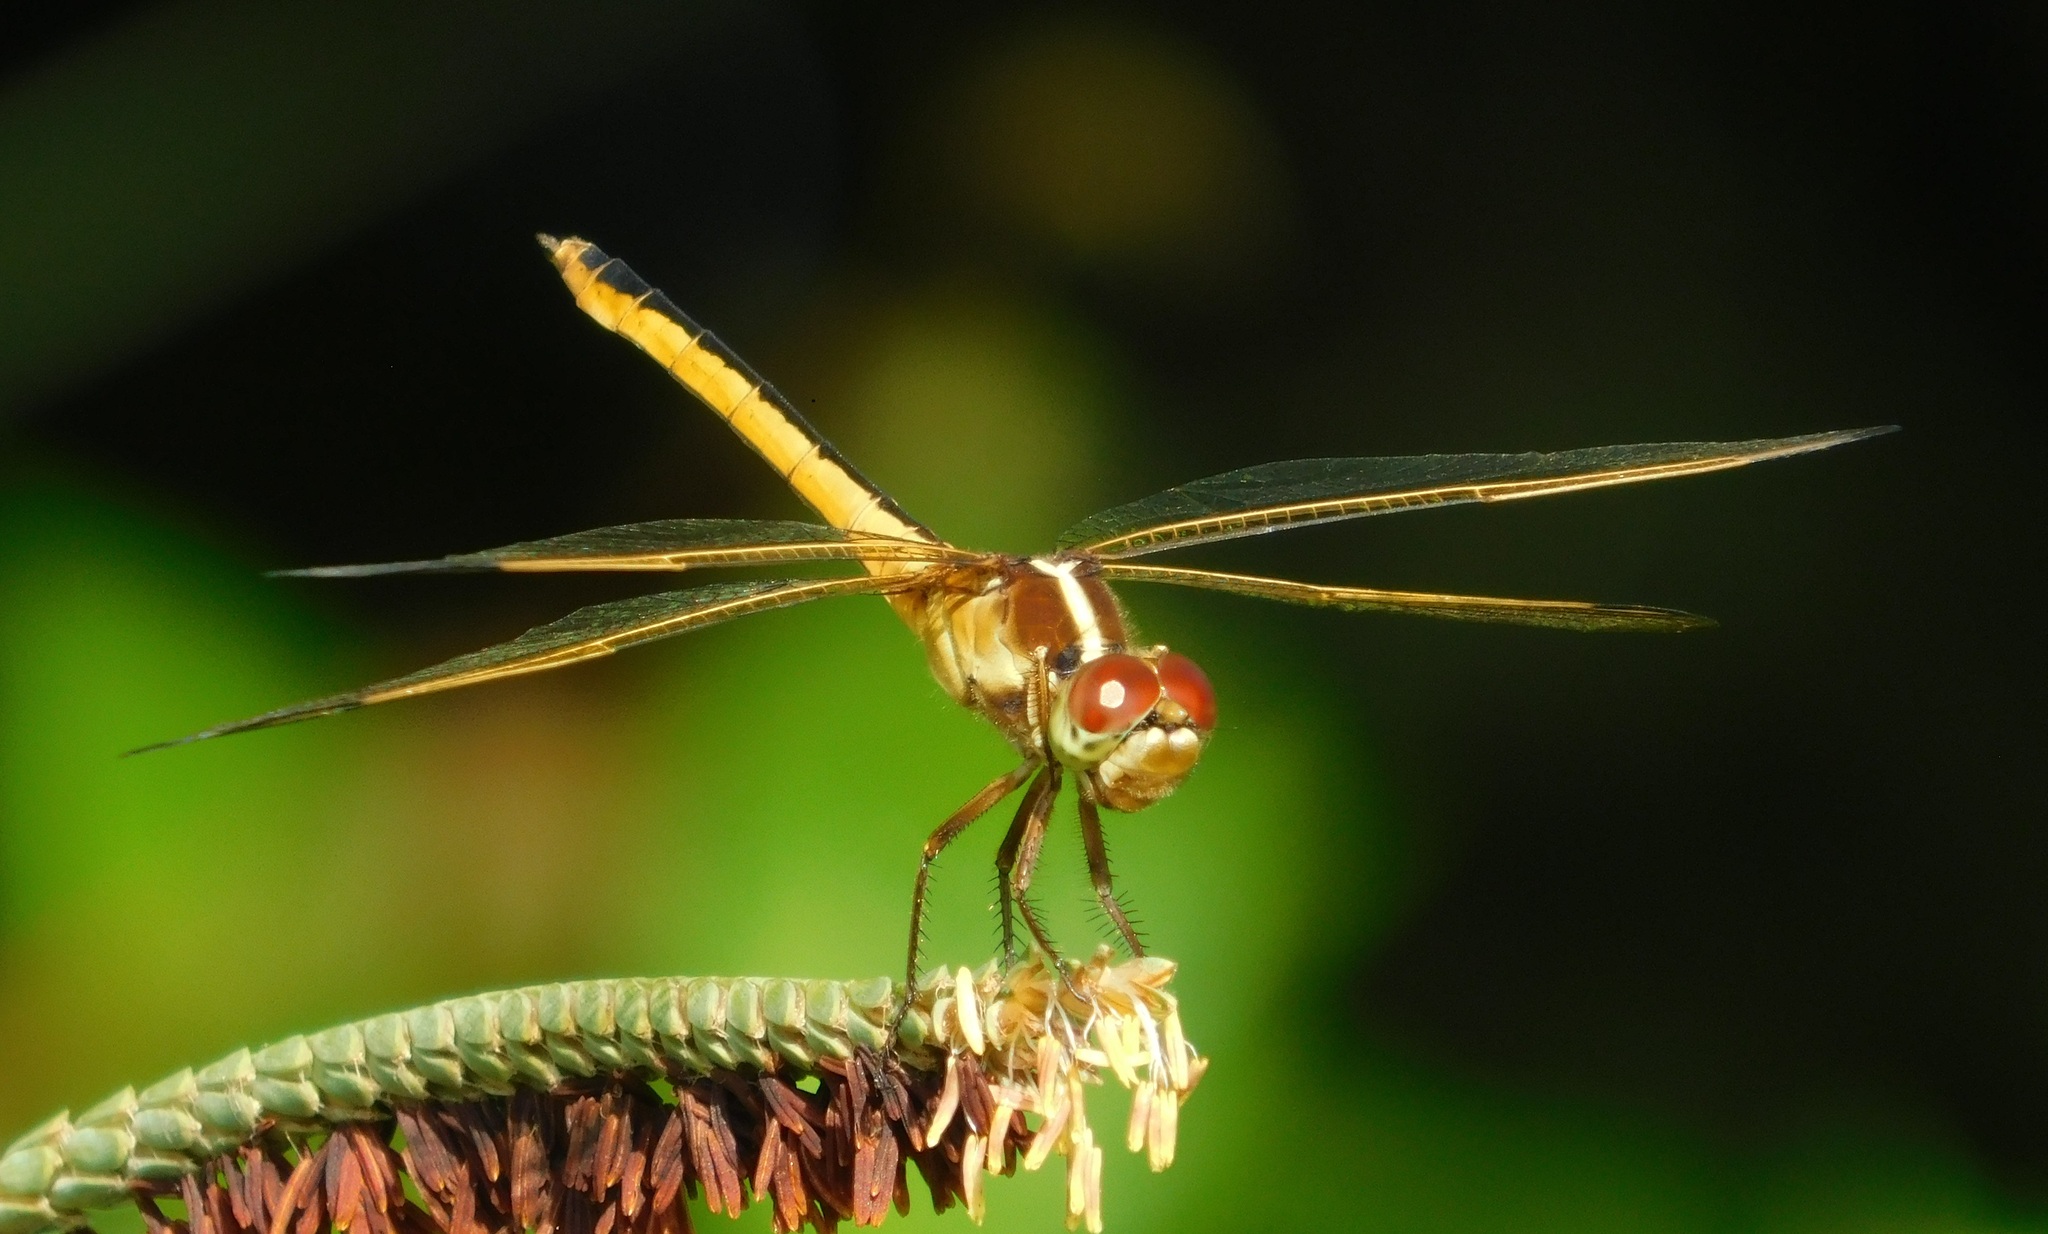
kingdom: Animalia
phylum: Arthropoda
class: Insecta
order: Odonata
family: Libellulidae
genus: Libellula
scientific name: Libellula needhami
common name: Needham's skimmer
